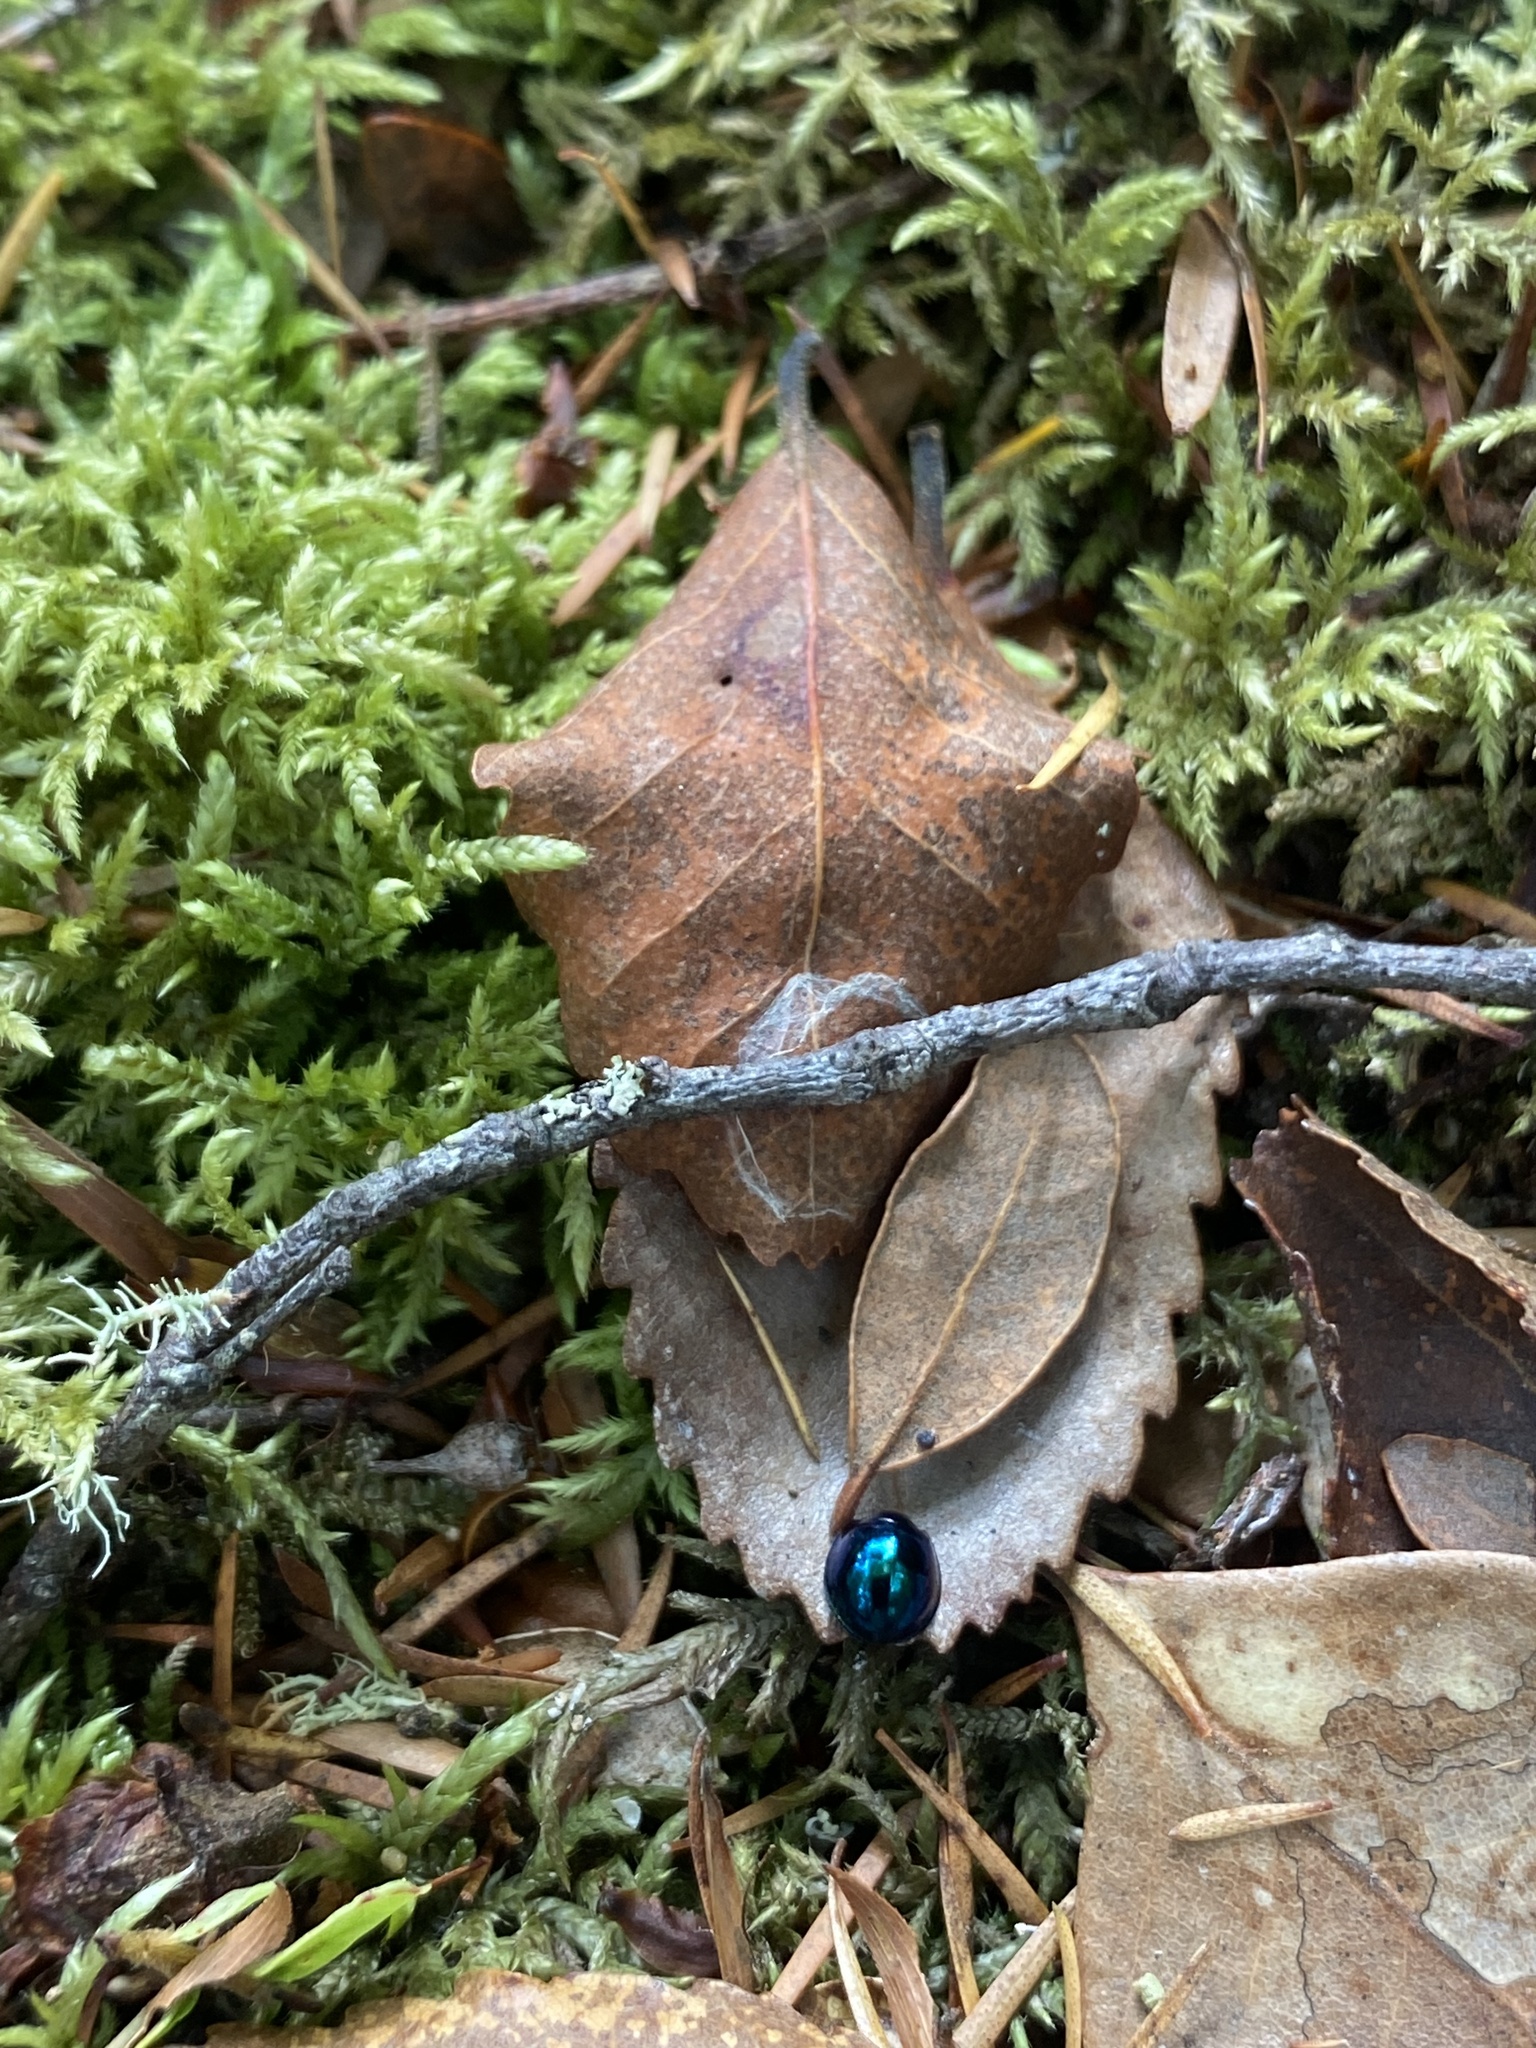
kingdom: Animalia
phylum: Arthropoda
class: Insecta
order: Coleoptera
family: Coccinellidae
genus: Halmus
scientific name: Halmus chalybeus
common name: Steel blue ladybird beetle
